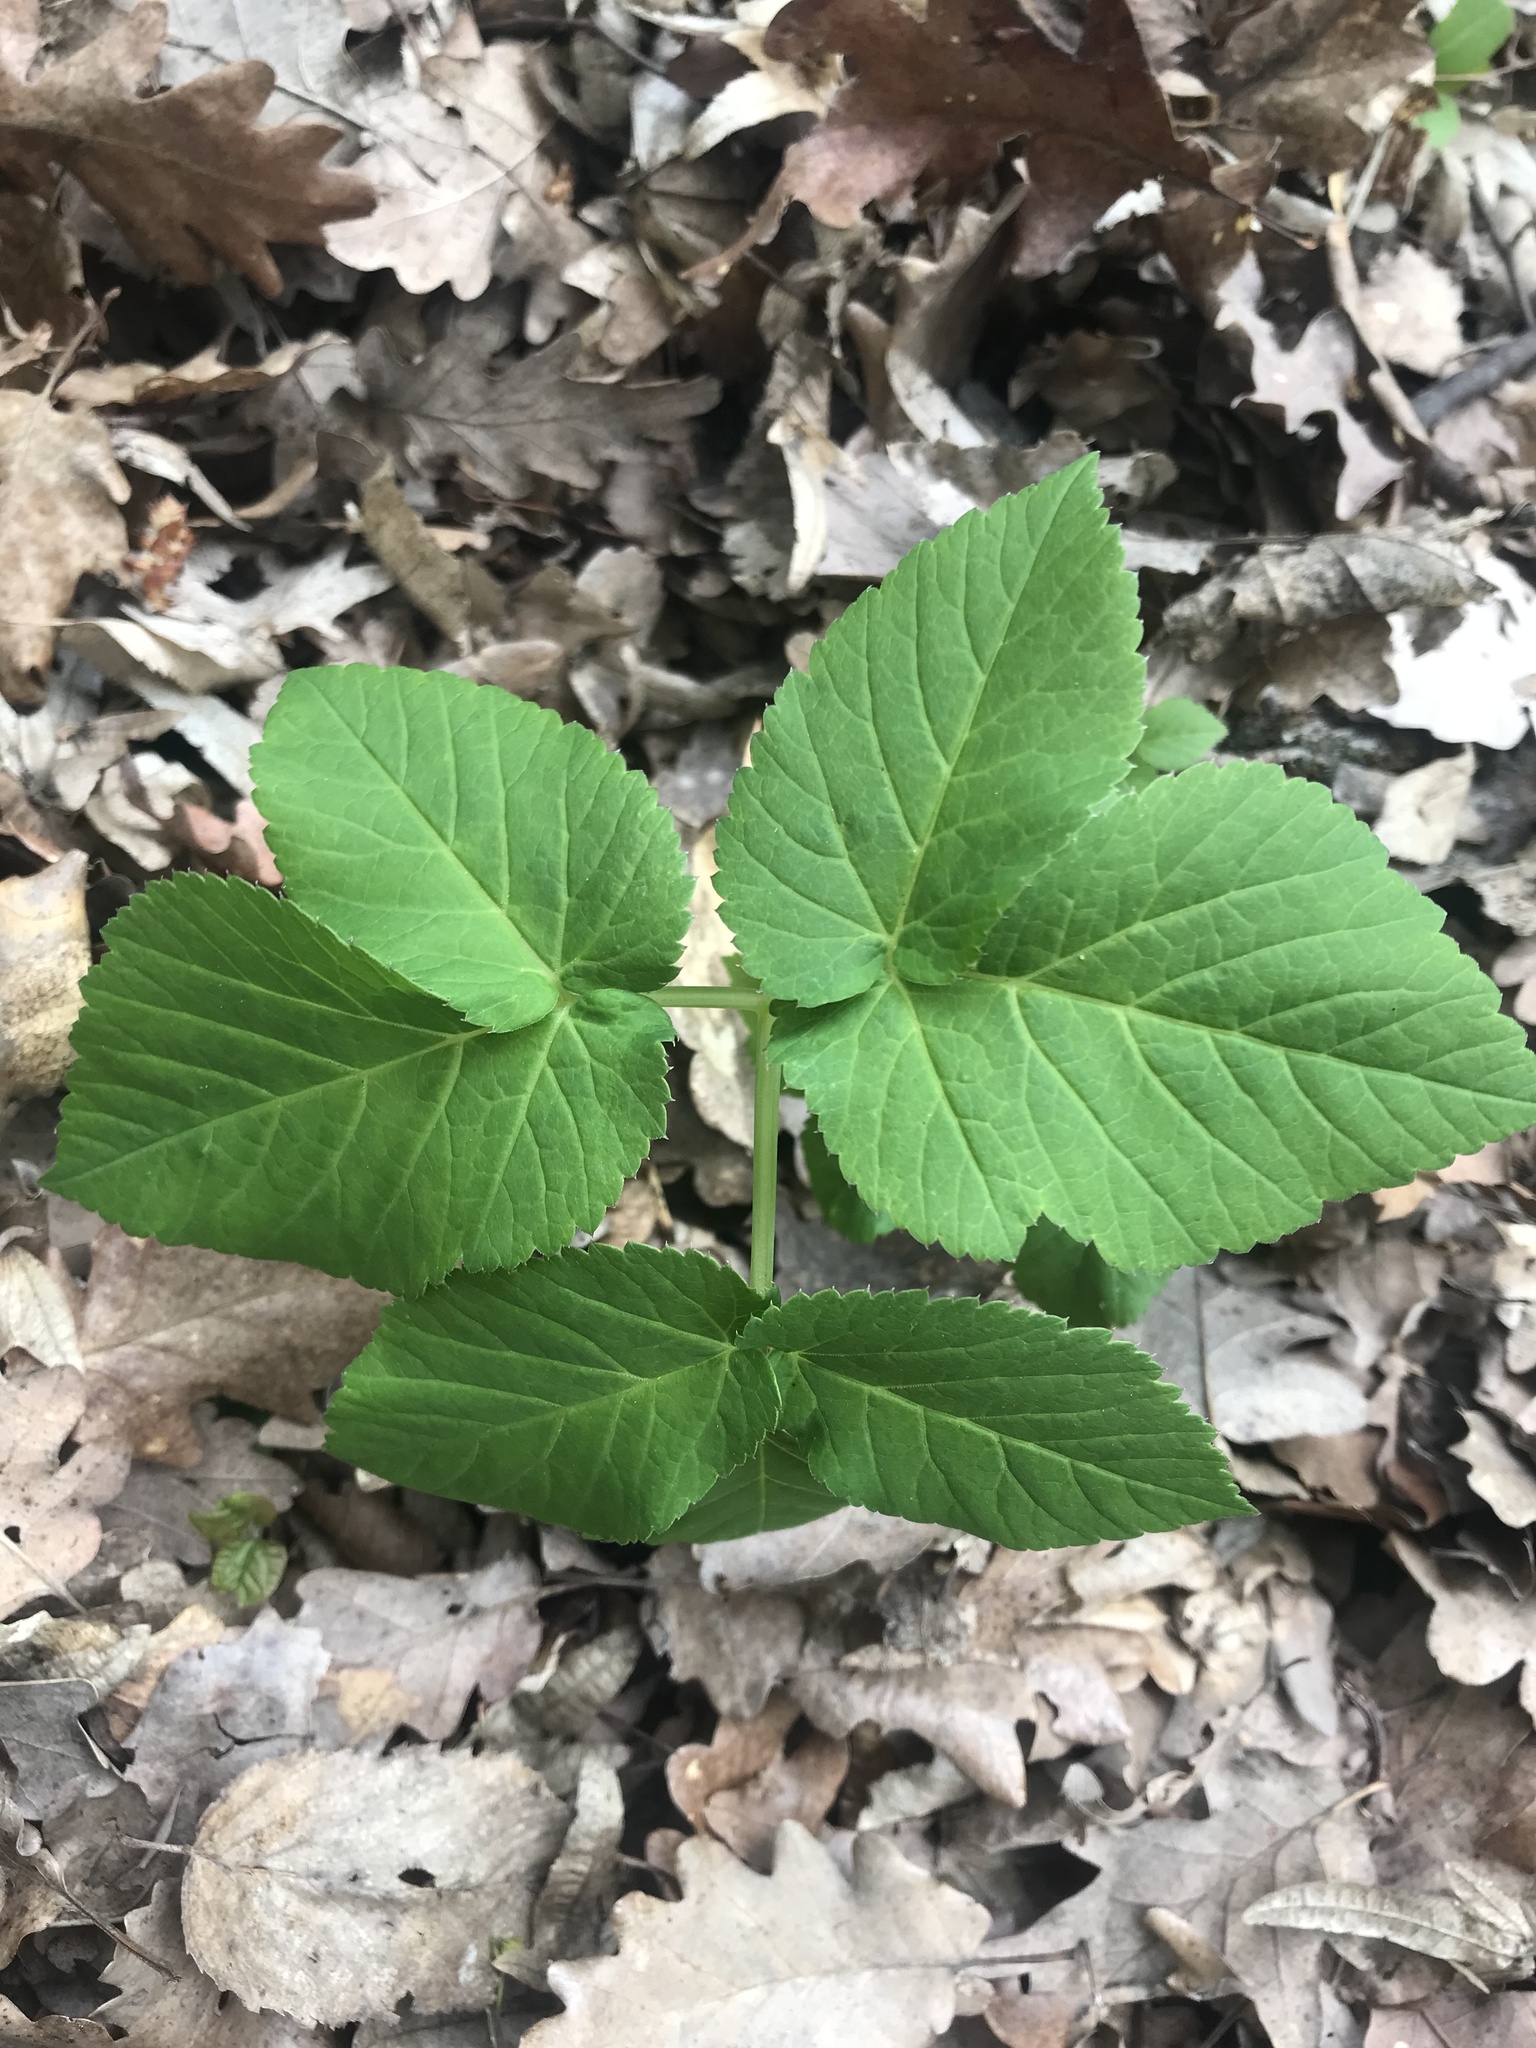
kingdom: Plantae
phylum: Tracheophyta
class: Magnoliopsida
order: Apiales
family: Apiaceae
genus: Aegopodium
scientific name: Aegopodium podagraria
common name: Ground-elder
